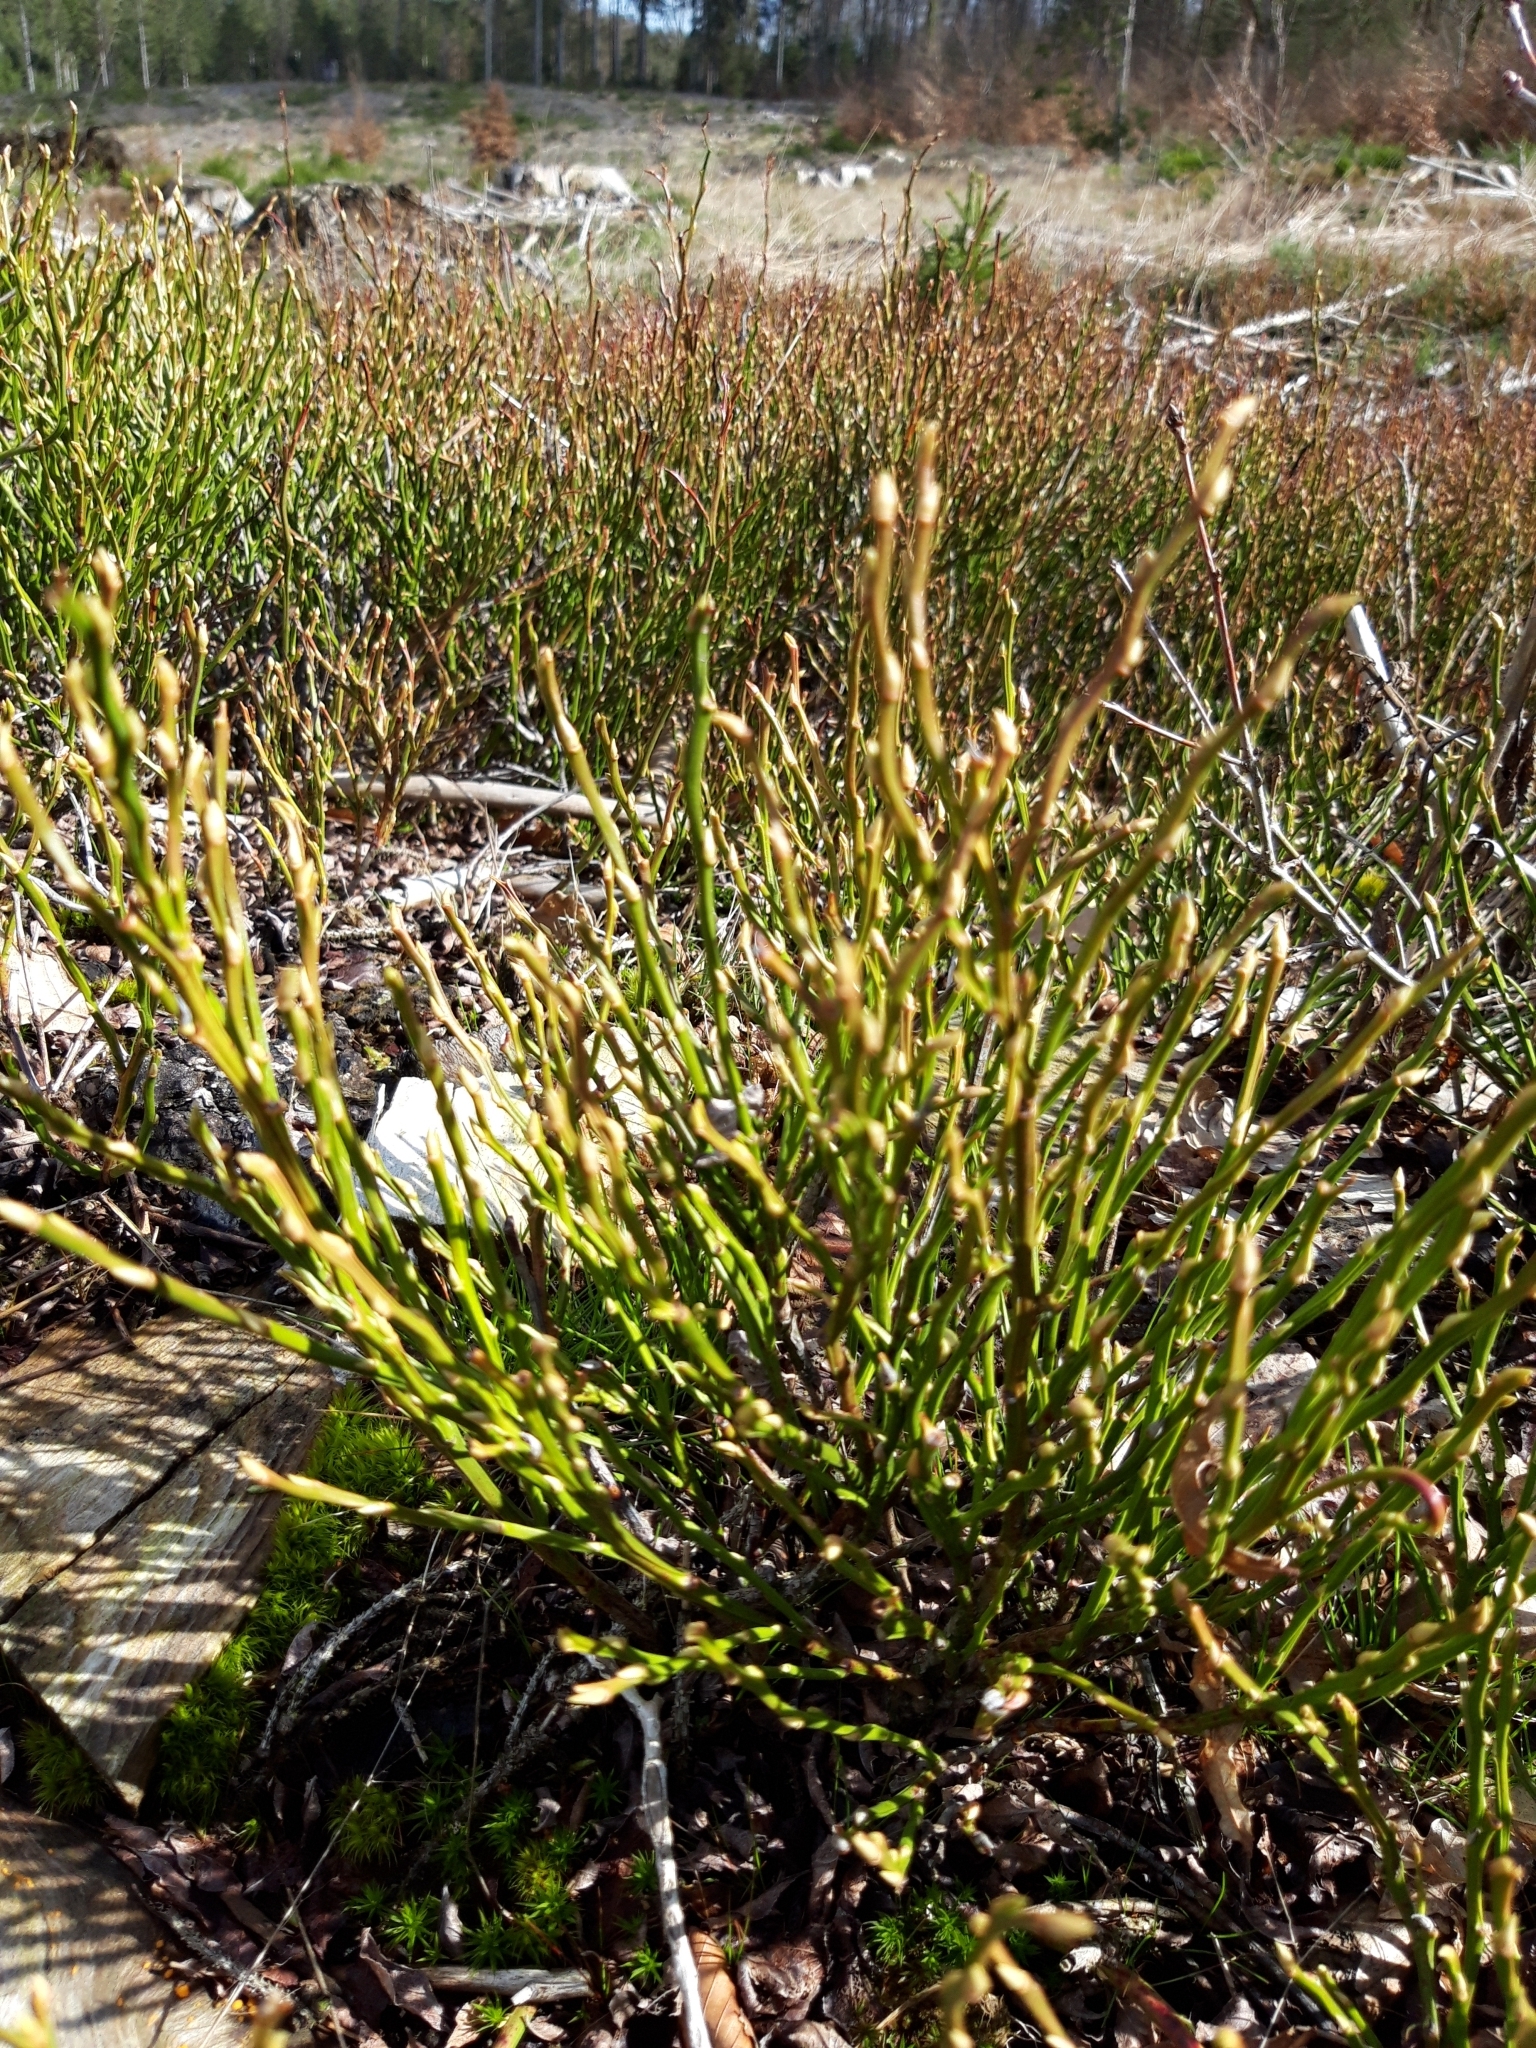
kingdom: Plantae
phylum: Tracheophyta
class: Magnoliopsida
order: Ericales
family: Ericaceae
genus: Vaccinium
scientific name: Vaccinium myrtillus
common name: Bilberry
